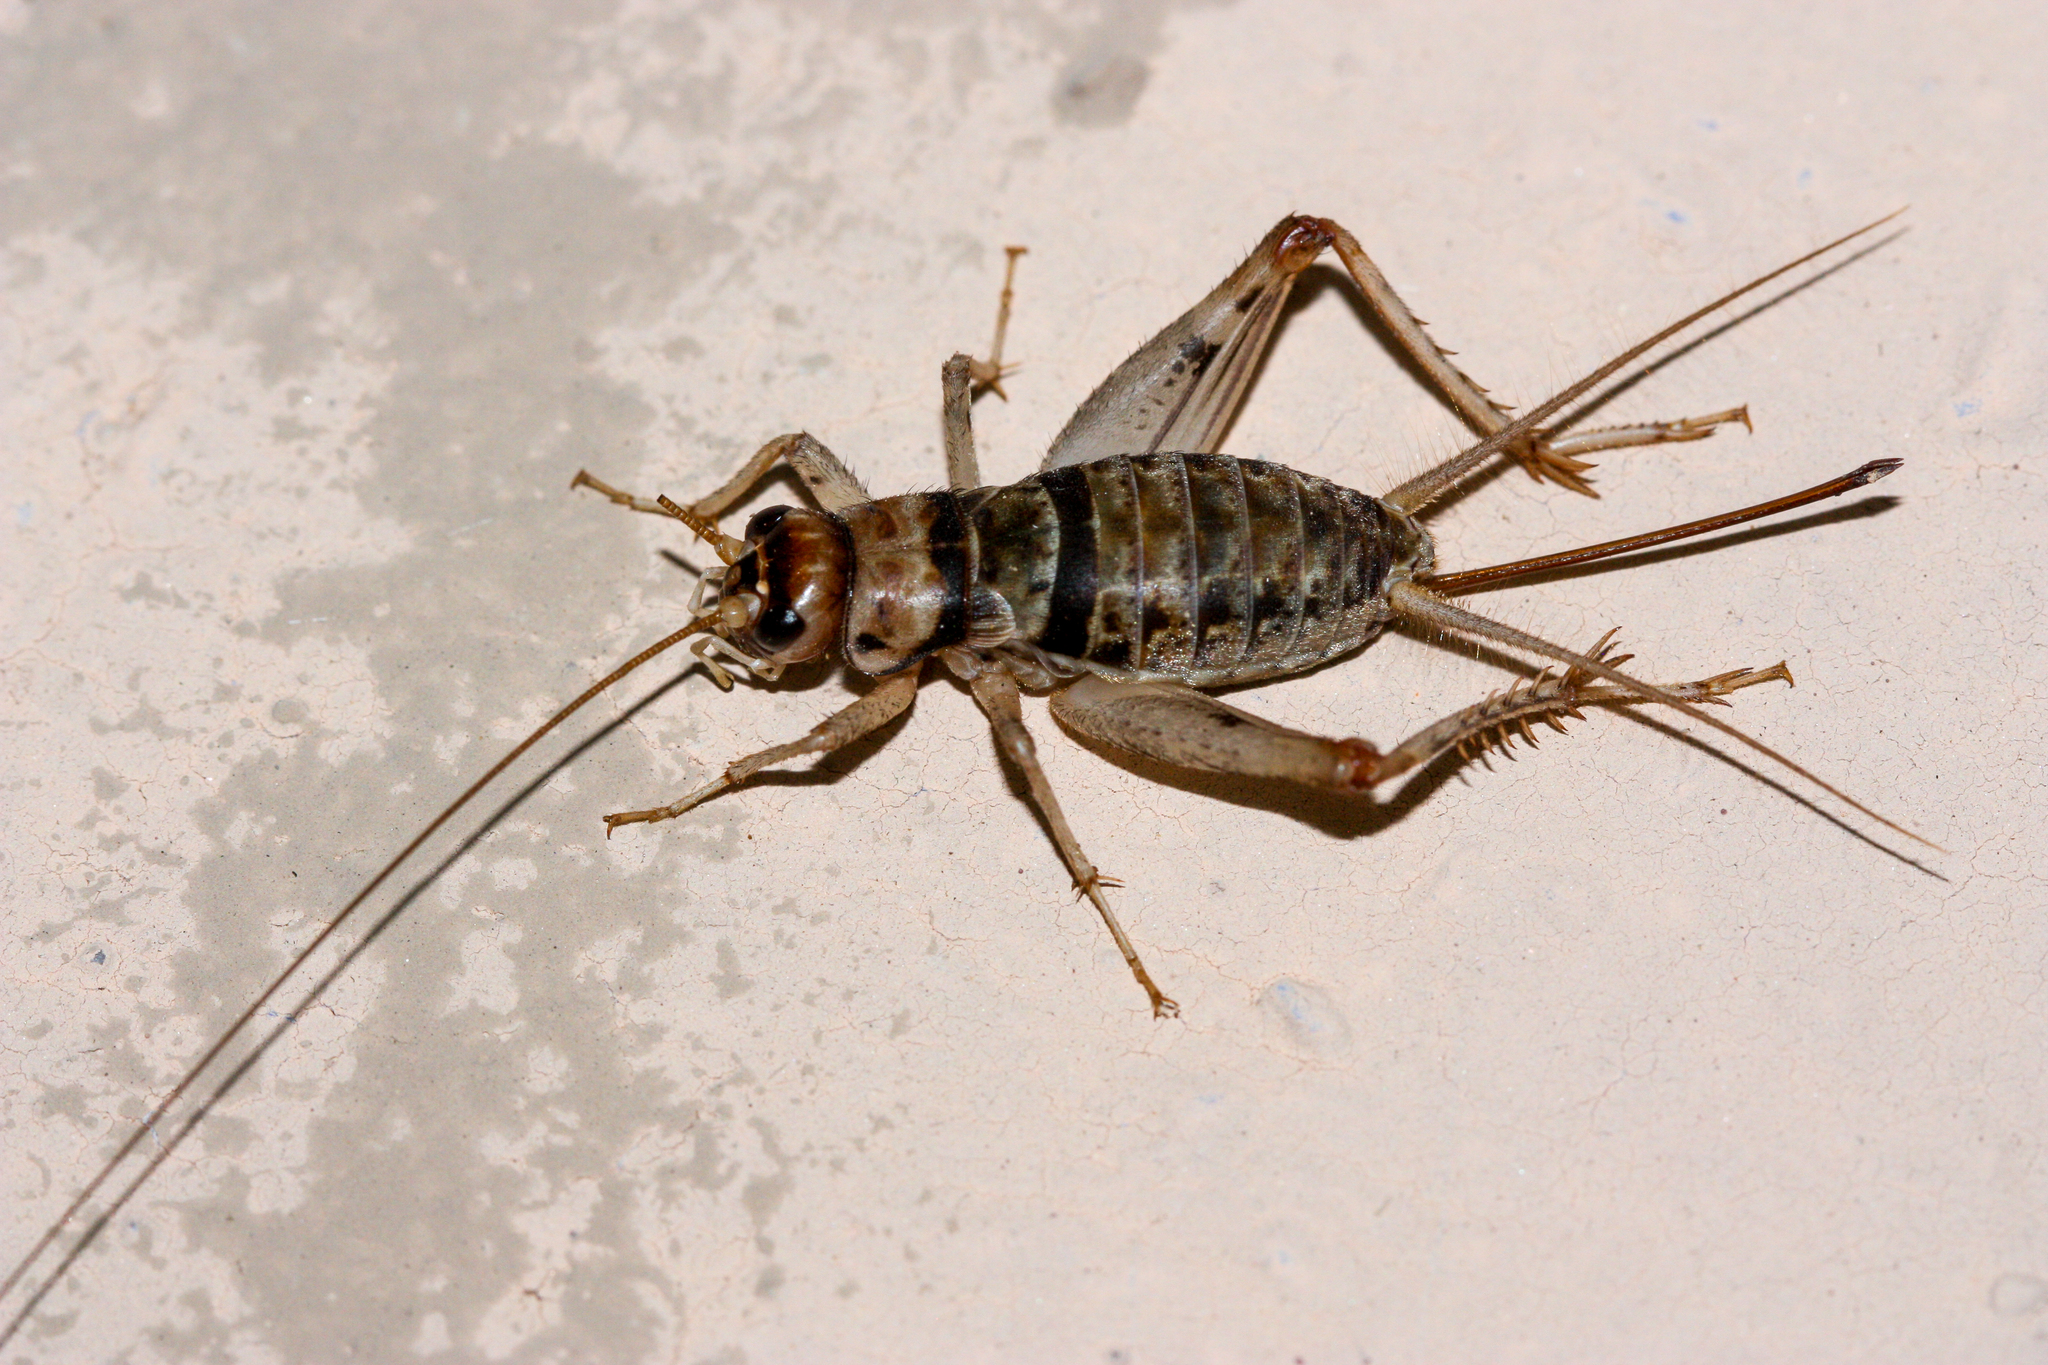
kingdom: Animalia
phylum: Arthropoda
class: Insecta
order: Orthoptera
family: Gryllidae
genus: Gryllodes
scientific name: Gryllodes sigillatus
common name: Tropical house cricket
